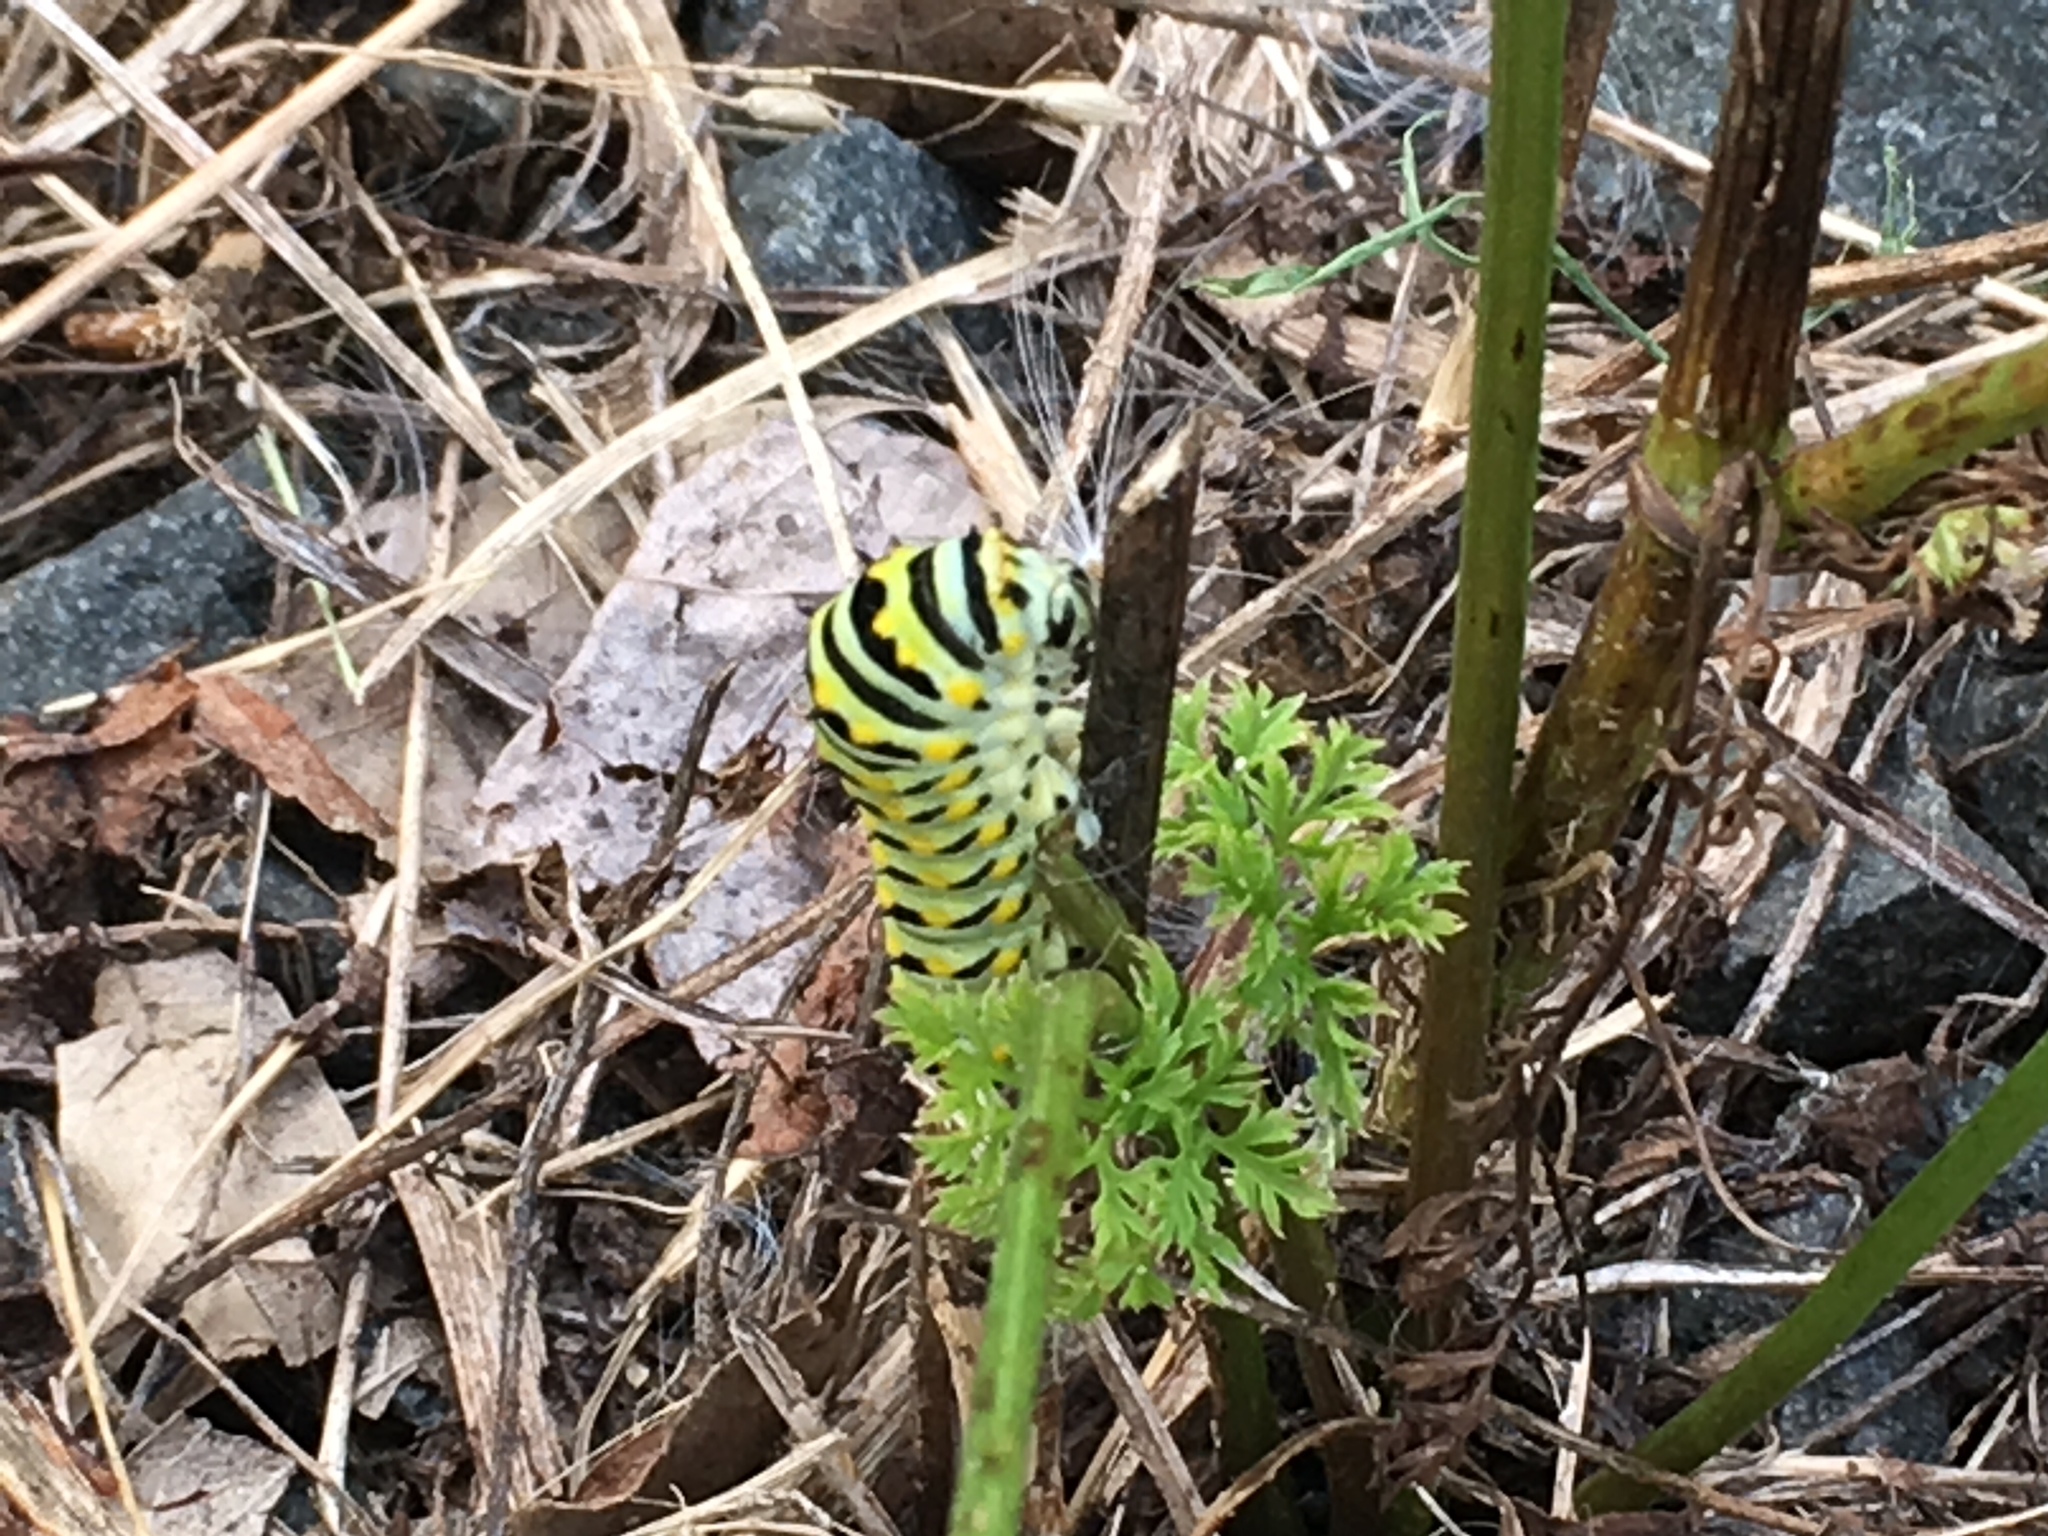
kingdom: Animalia
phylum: Arthropoda
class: Insecta
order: Lepidoptera
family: Papilionidae
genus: Papilio
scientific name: Papilio polyxenes
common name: Black swallowtail
